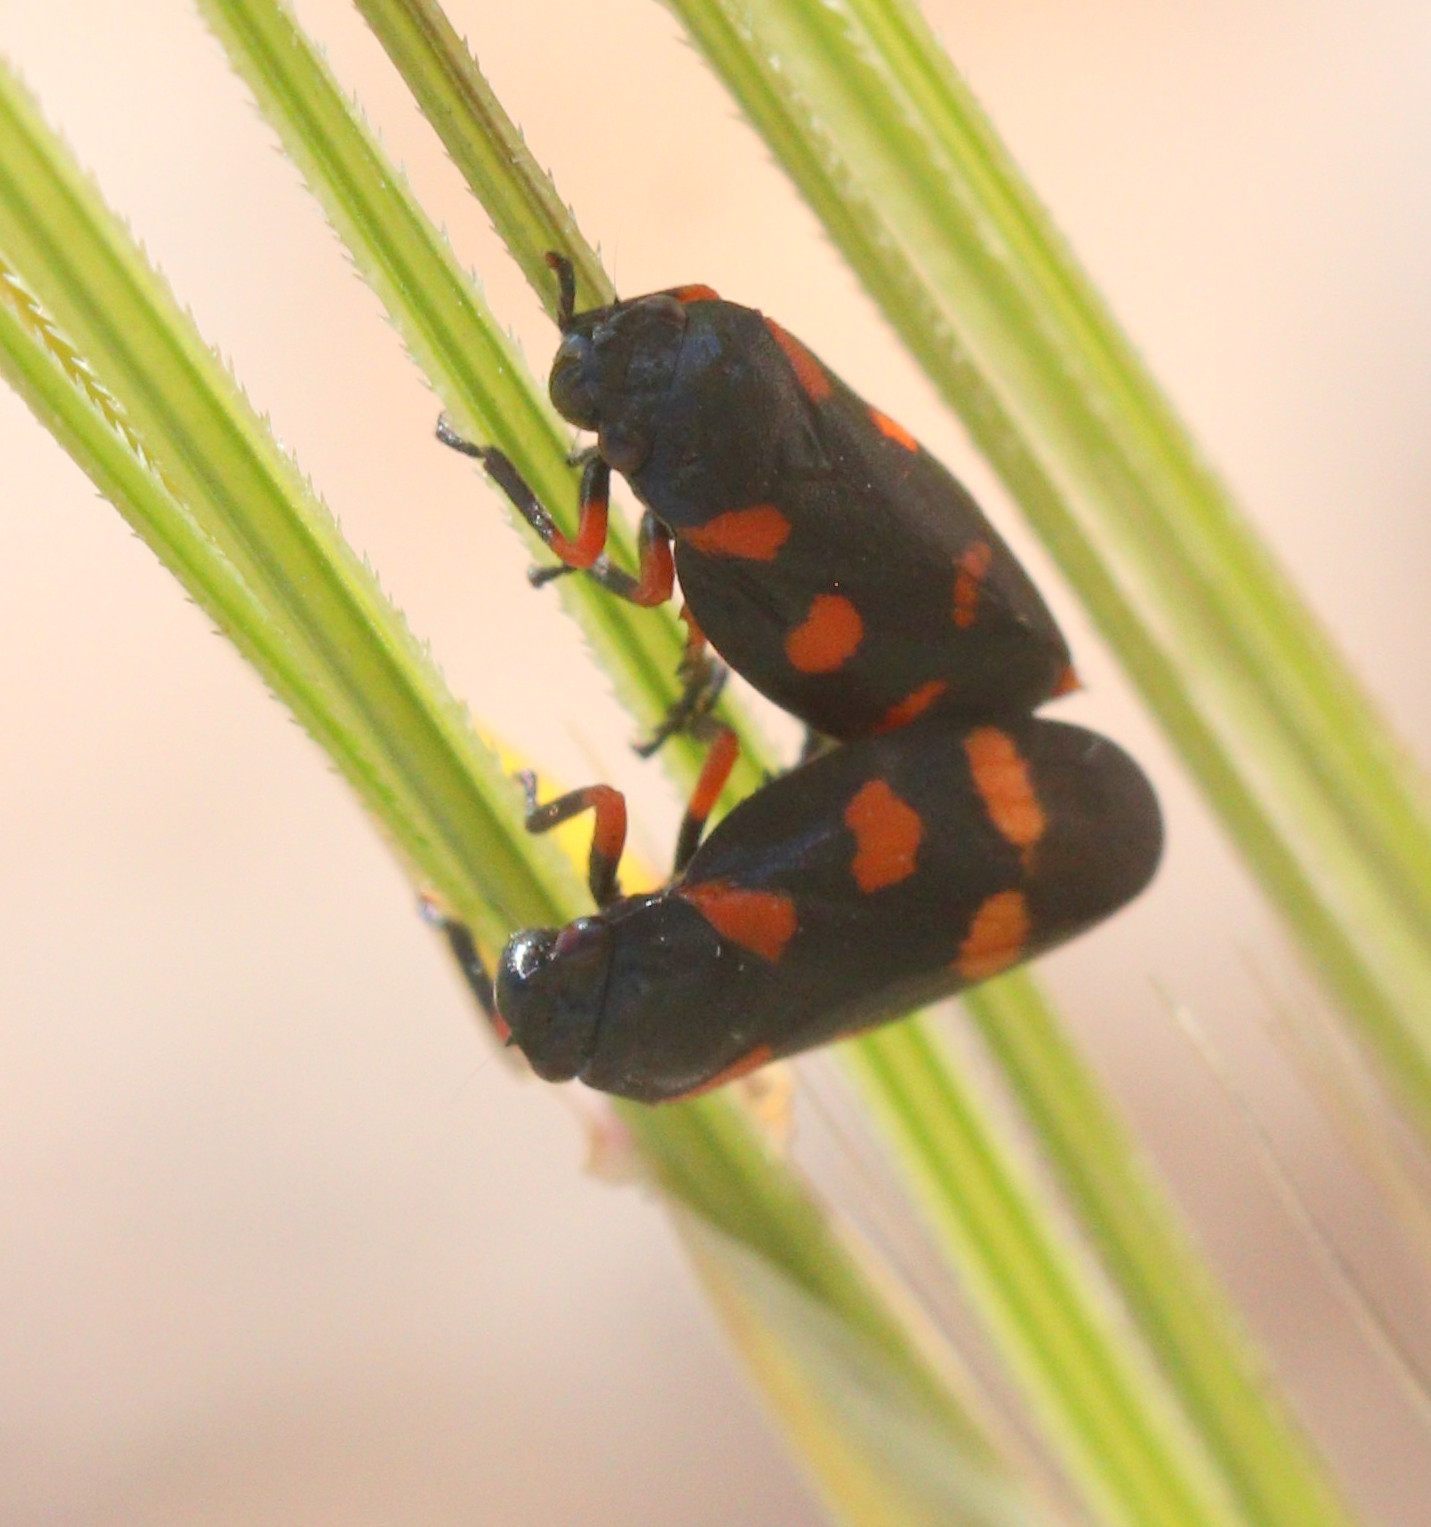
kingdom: Animalia
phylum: Arthropoda
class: Insecta
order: Hemiptera
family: Cercopidae
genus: Cercopis
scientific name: Cercopis
